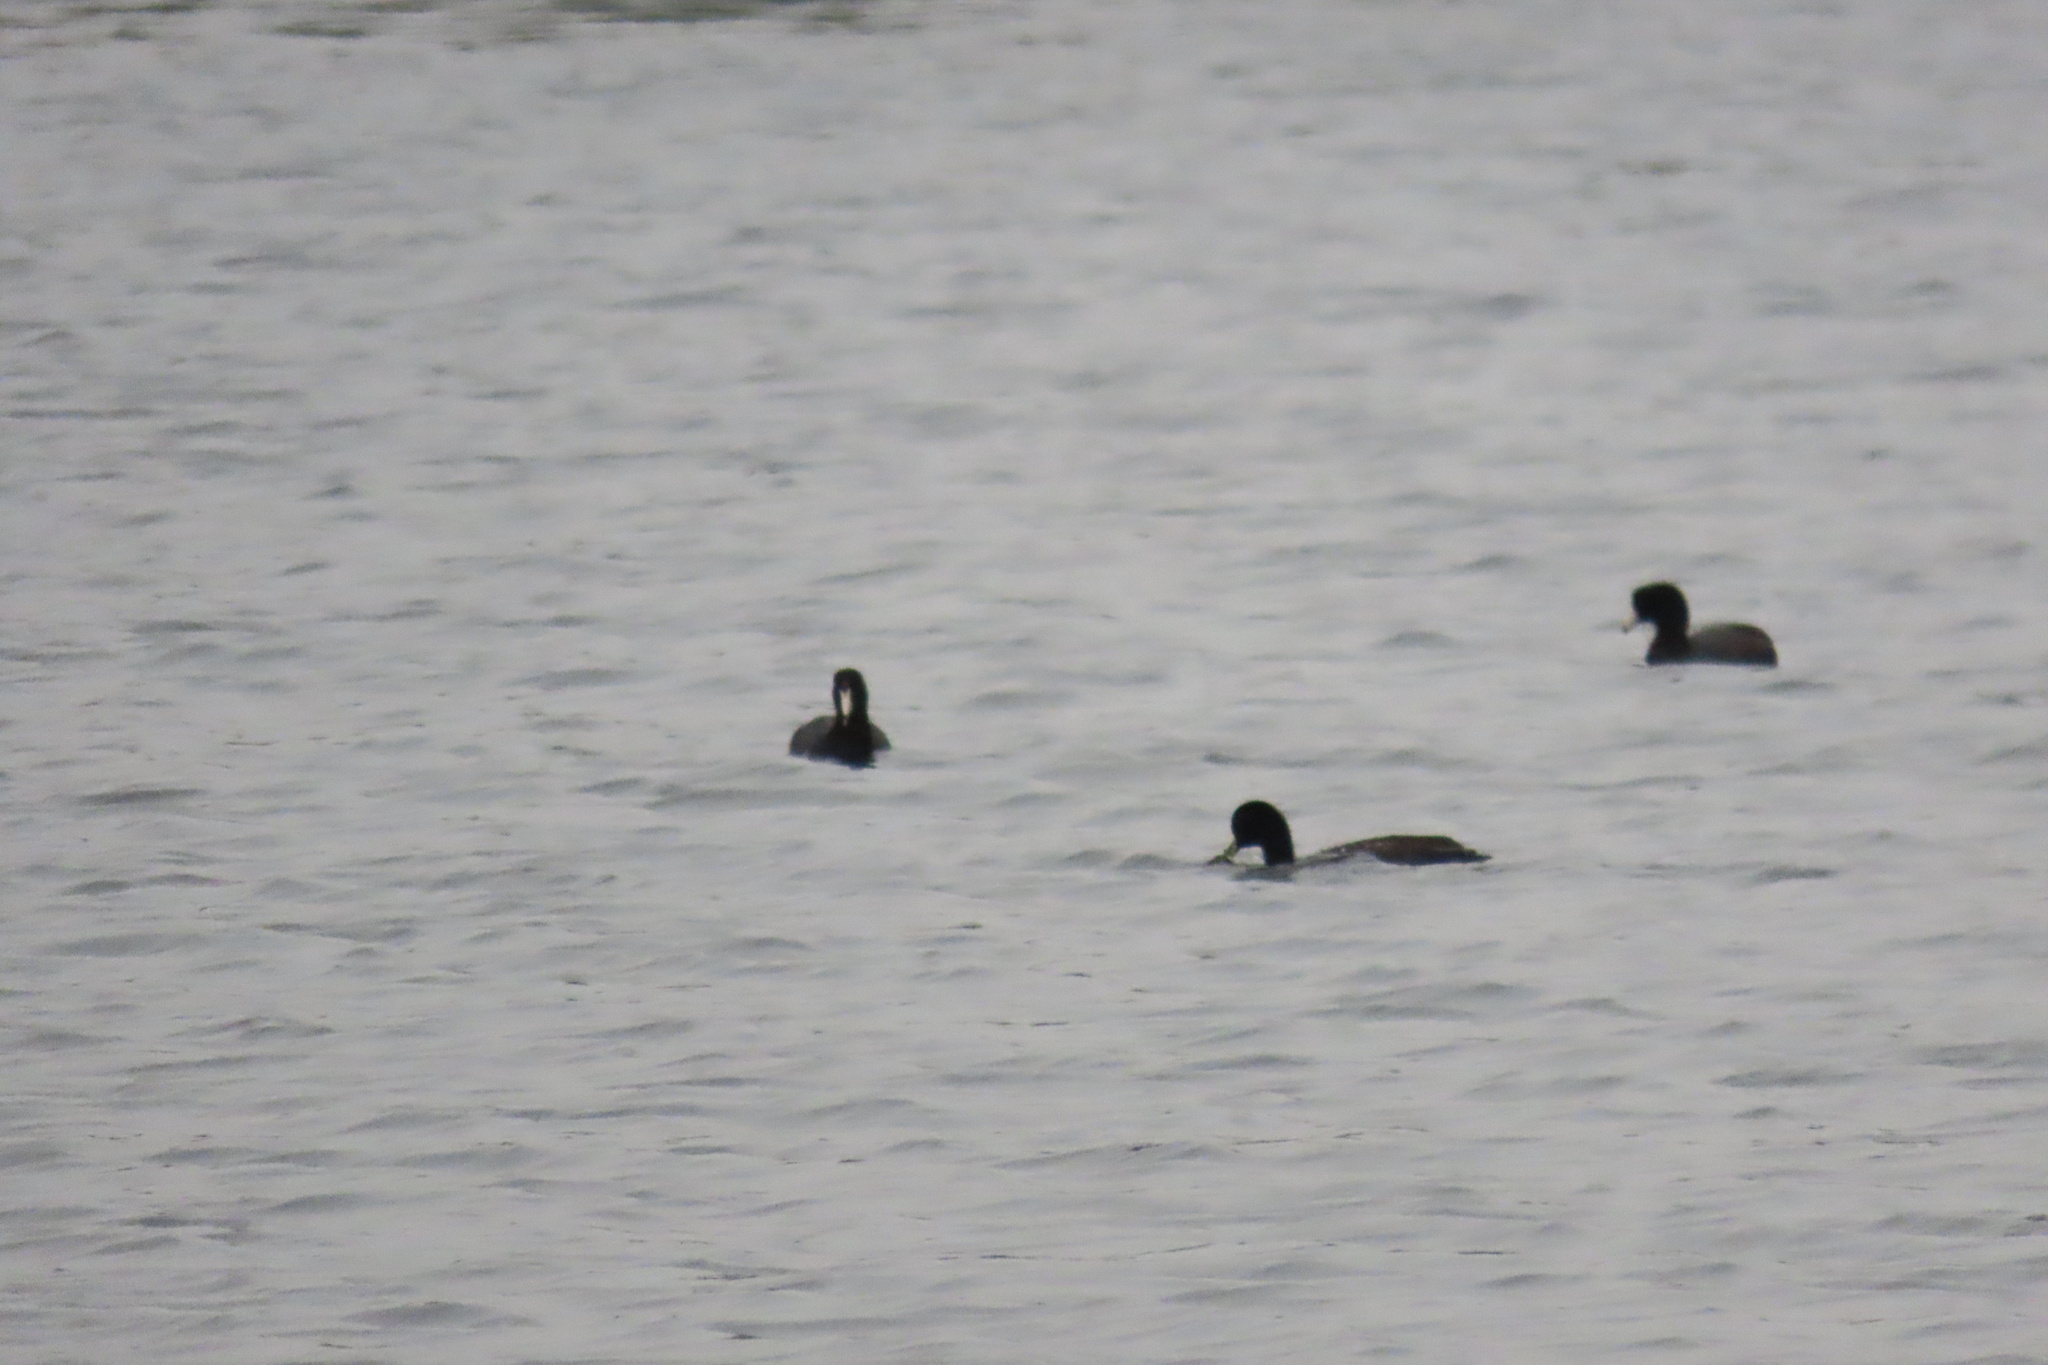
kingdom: Animalia
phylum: Chordata
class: Aves
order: Gruiformes
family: Rallidae
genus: Fulica
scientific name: Fulica americana
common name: American coot
